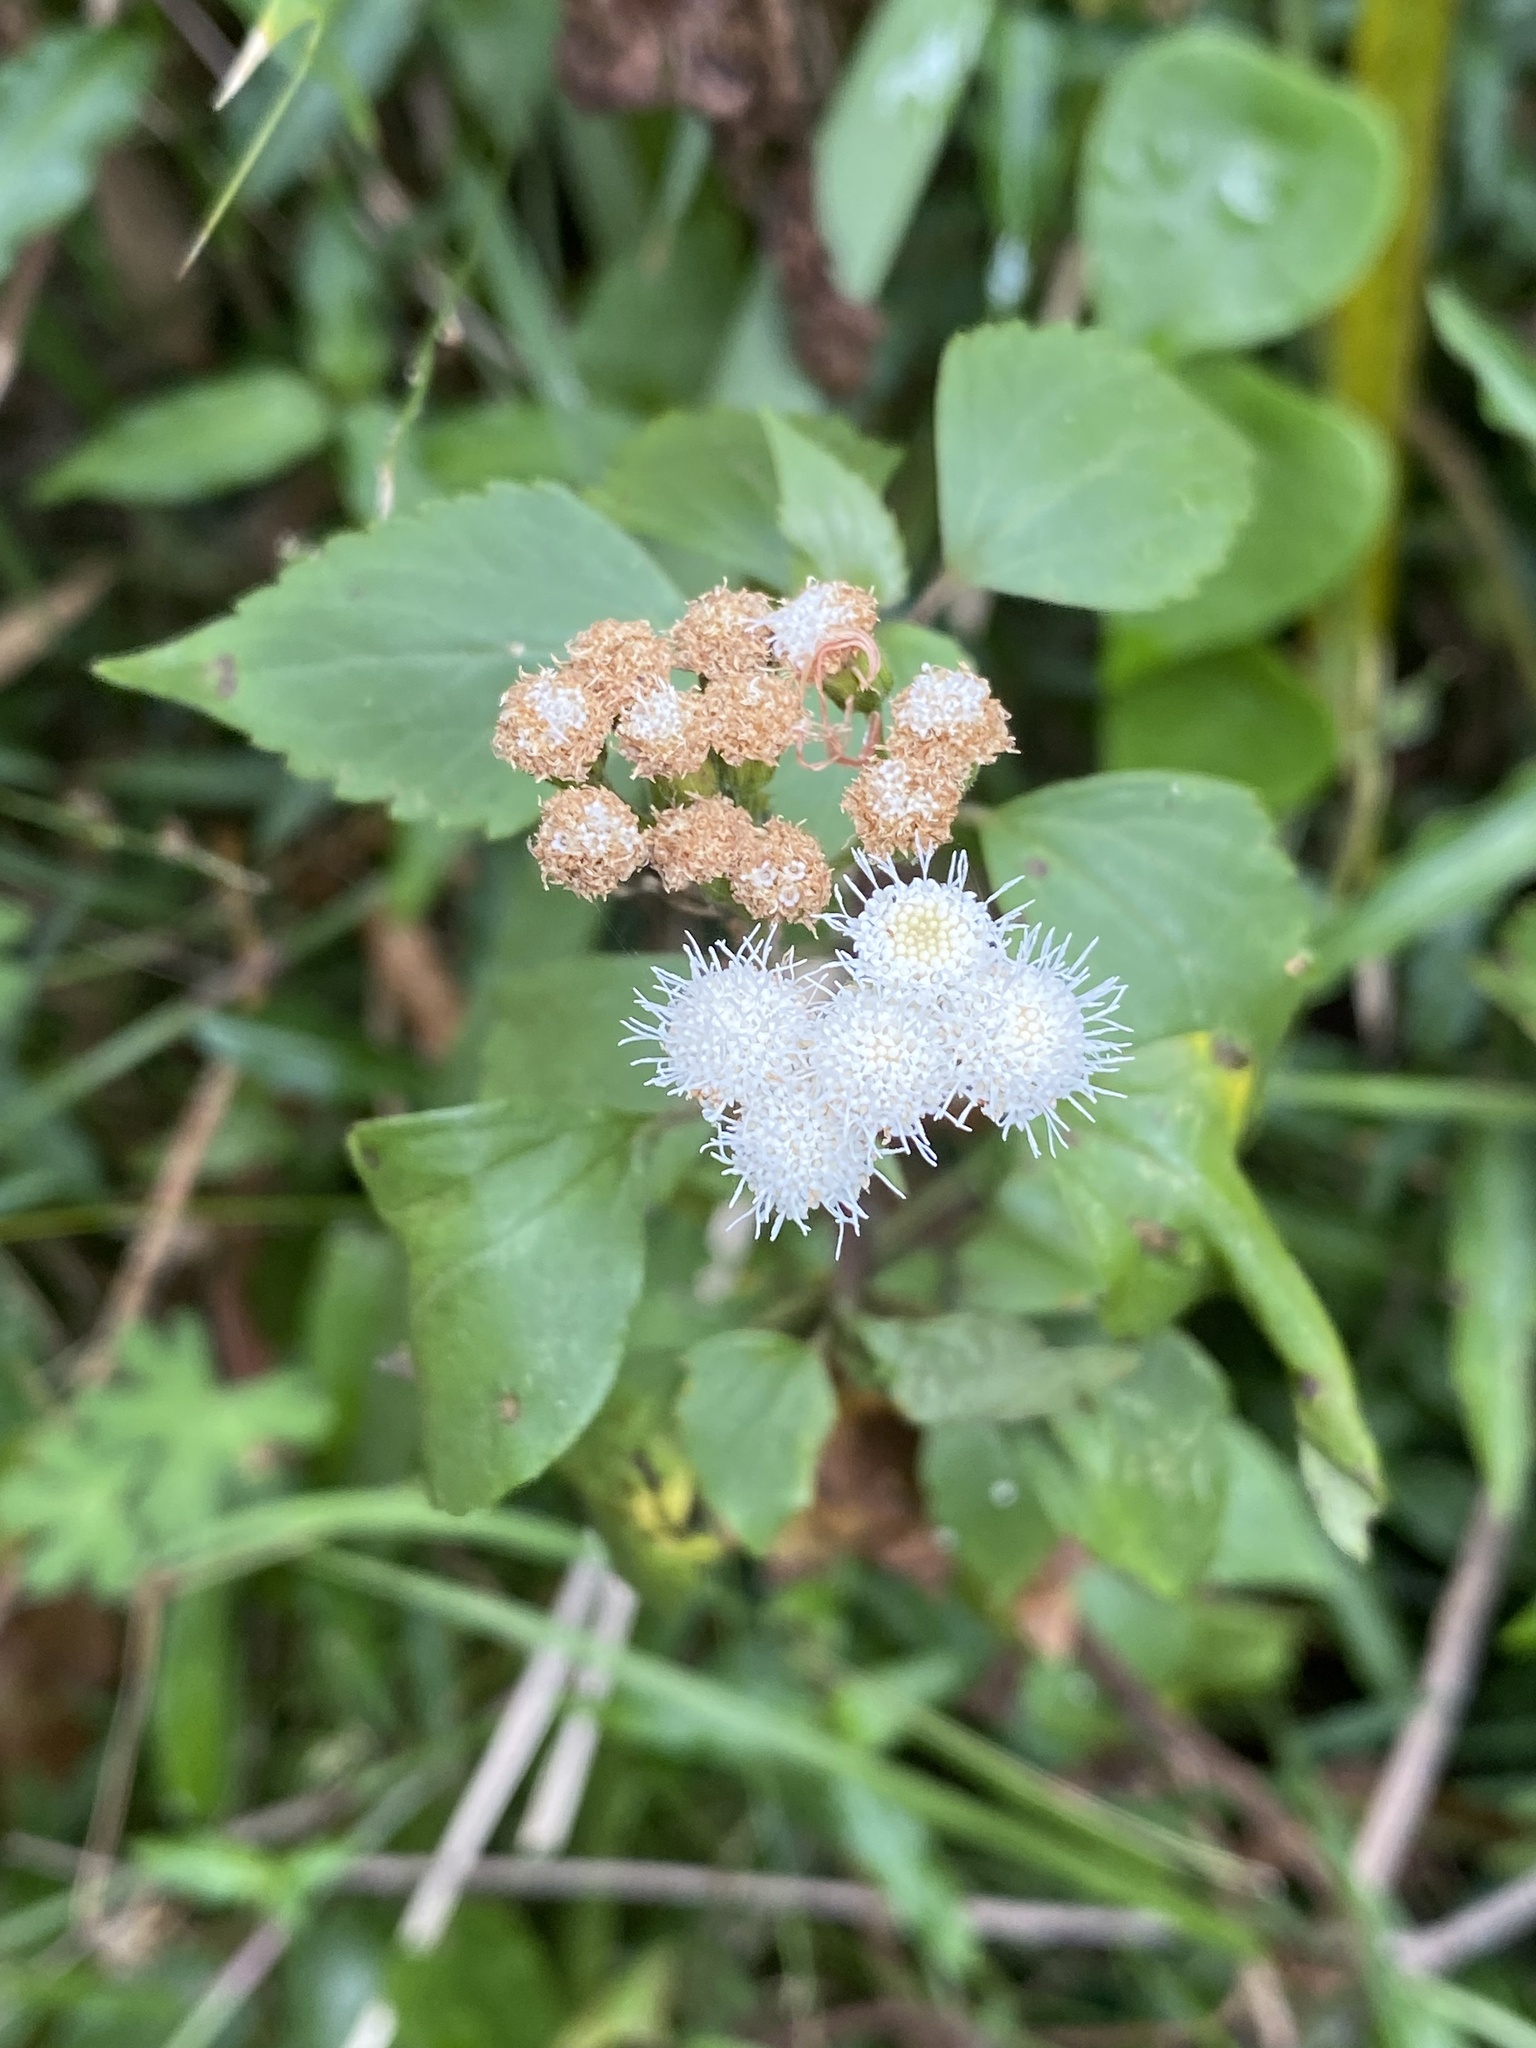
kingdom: Plantae
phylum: Tracheophyta
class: Magnoliopsida
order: Asterales
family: Asteraceae
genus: Ageratina
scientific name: Ageratina adenophora
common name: Sticky snakeroot
